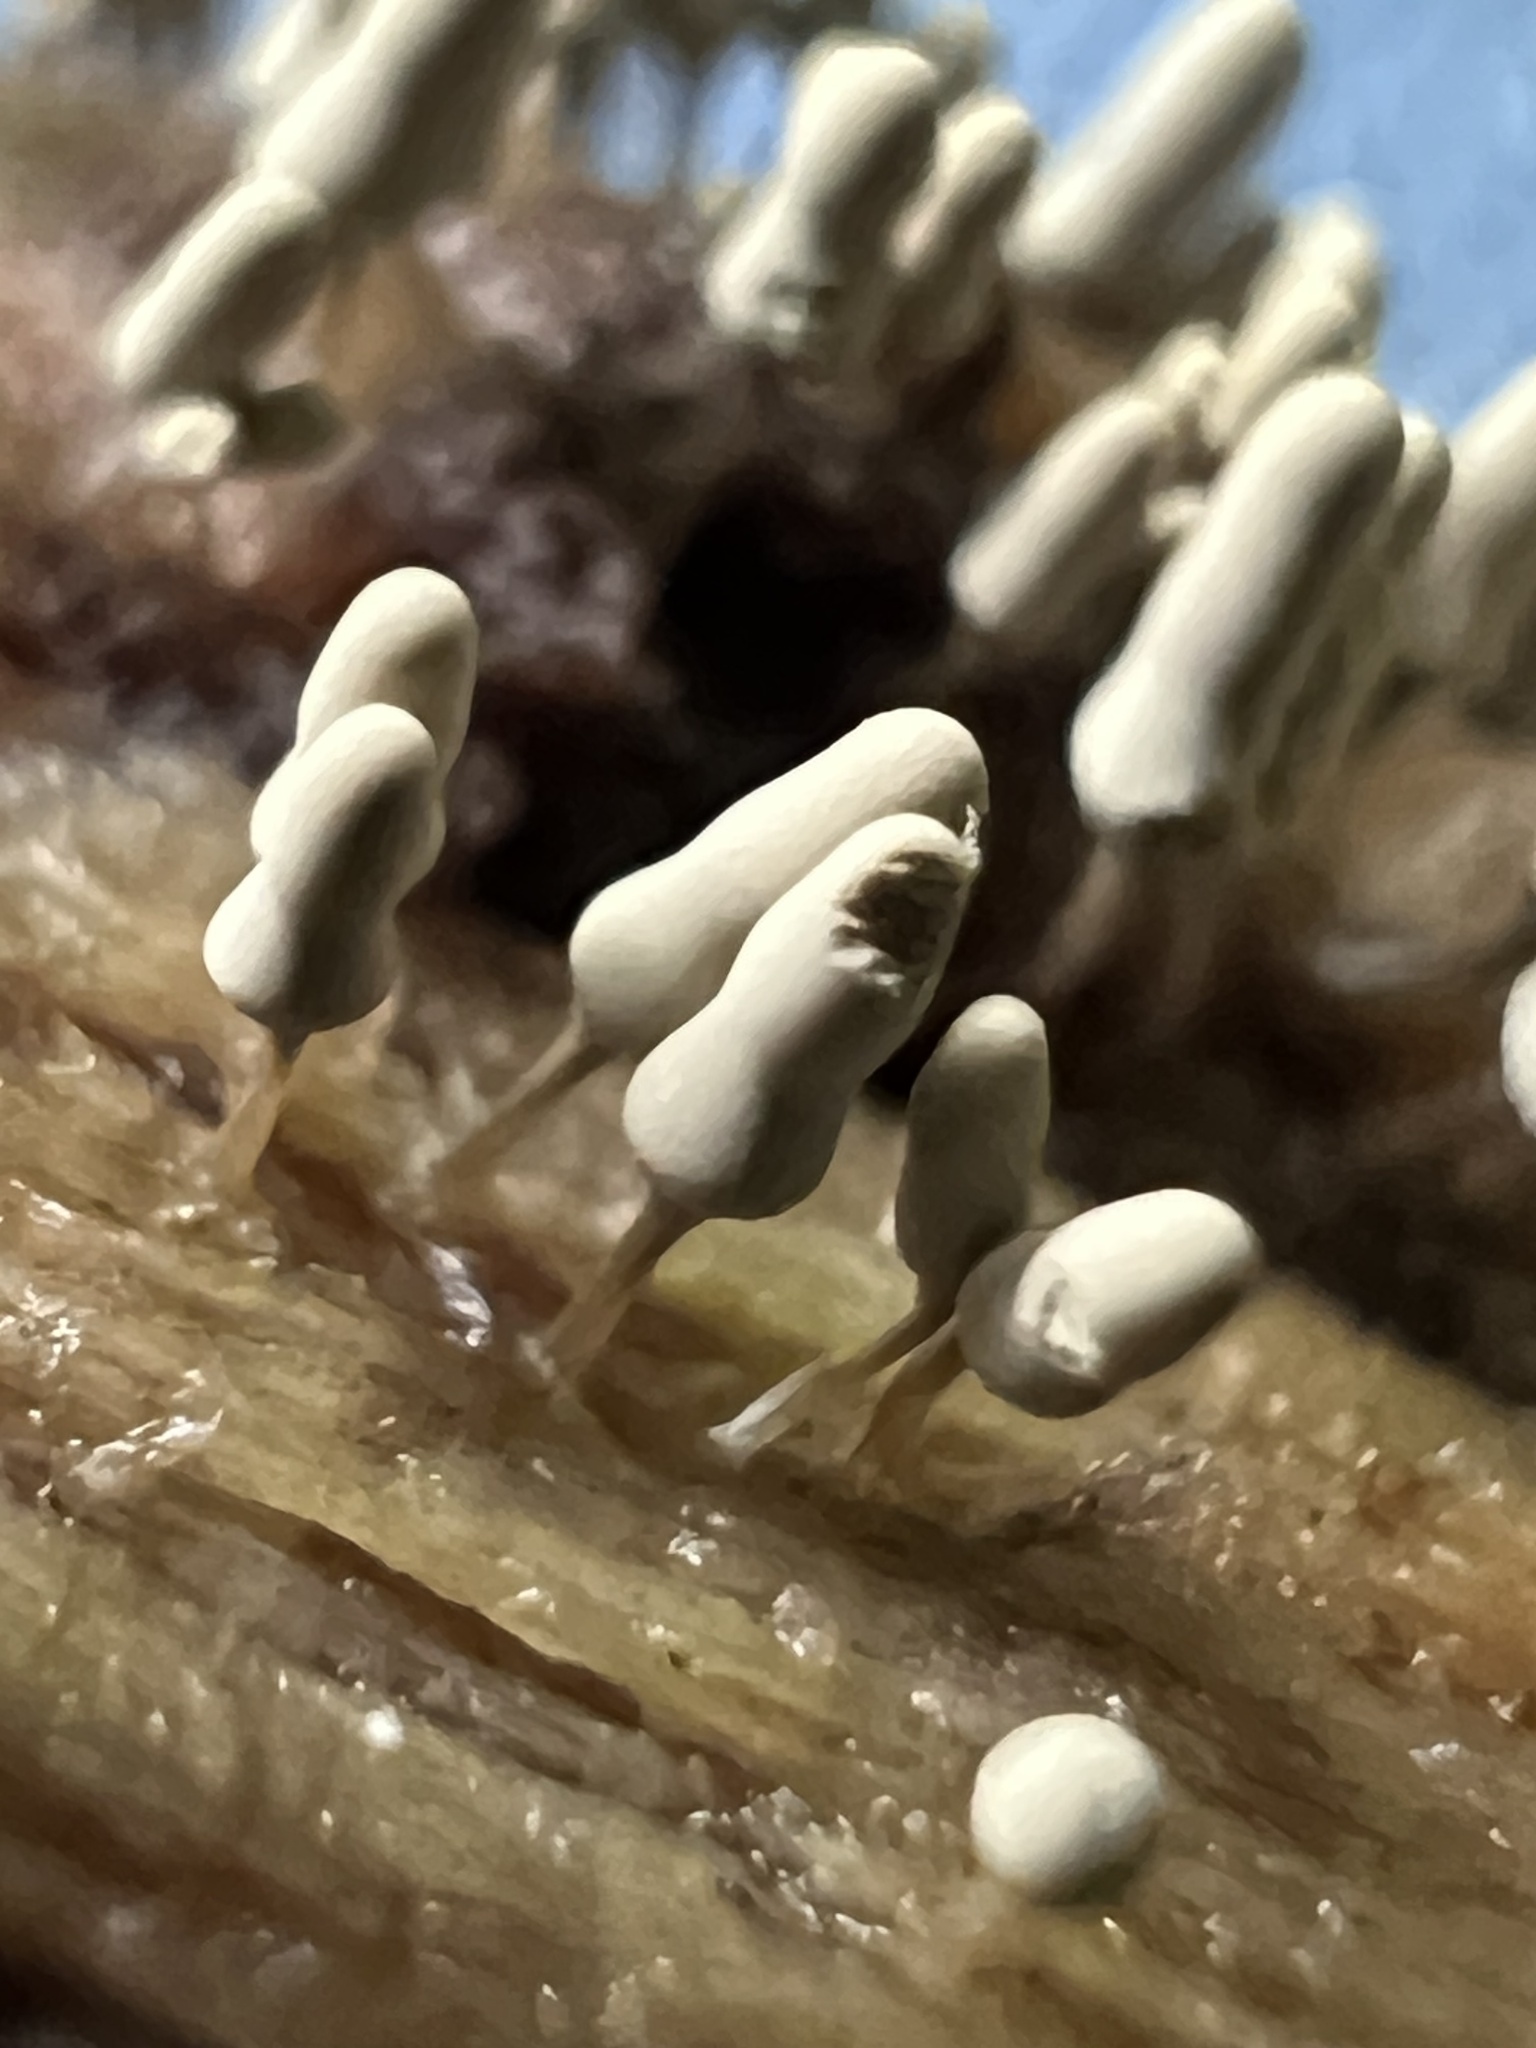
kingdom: Protozoa
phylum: Mycetozoa
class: Myxomycetes
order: Trichiales
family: Arcyriaceae
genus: Arcyria
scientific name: Arcyria cinerea
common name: White carnival candy slime mold
